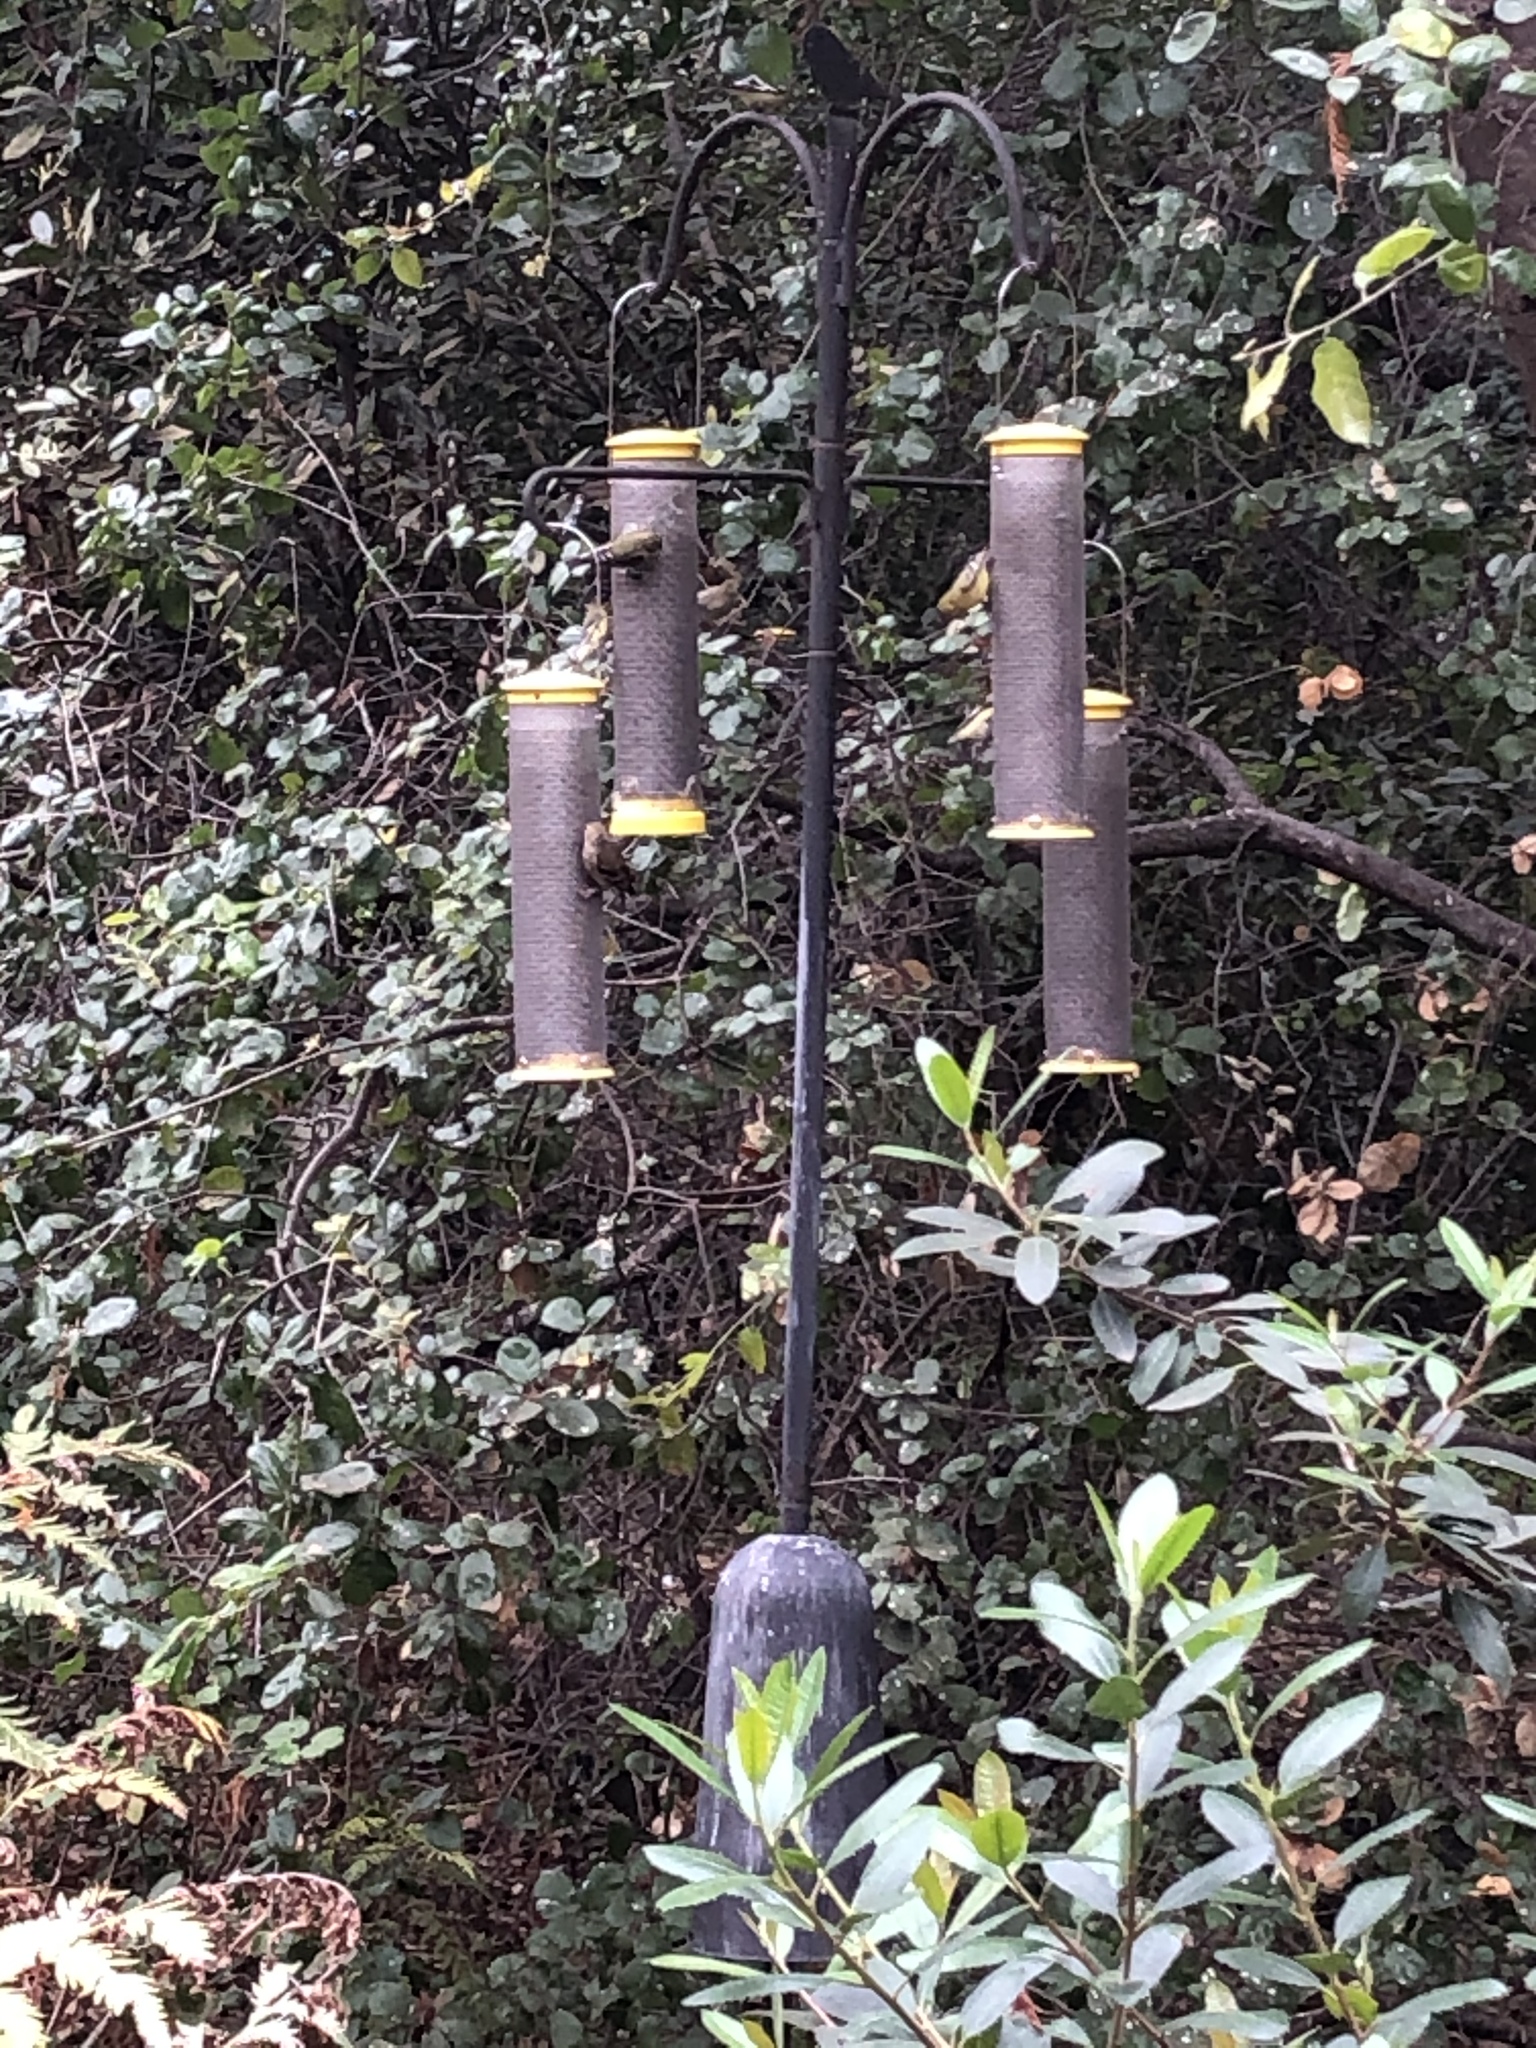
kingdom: Animalia
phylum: Chordata
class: Aves
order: Passeriformes
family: Fringillidae
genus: Spinus
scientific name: Spinus psaltria
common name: Lesser goldfinch
